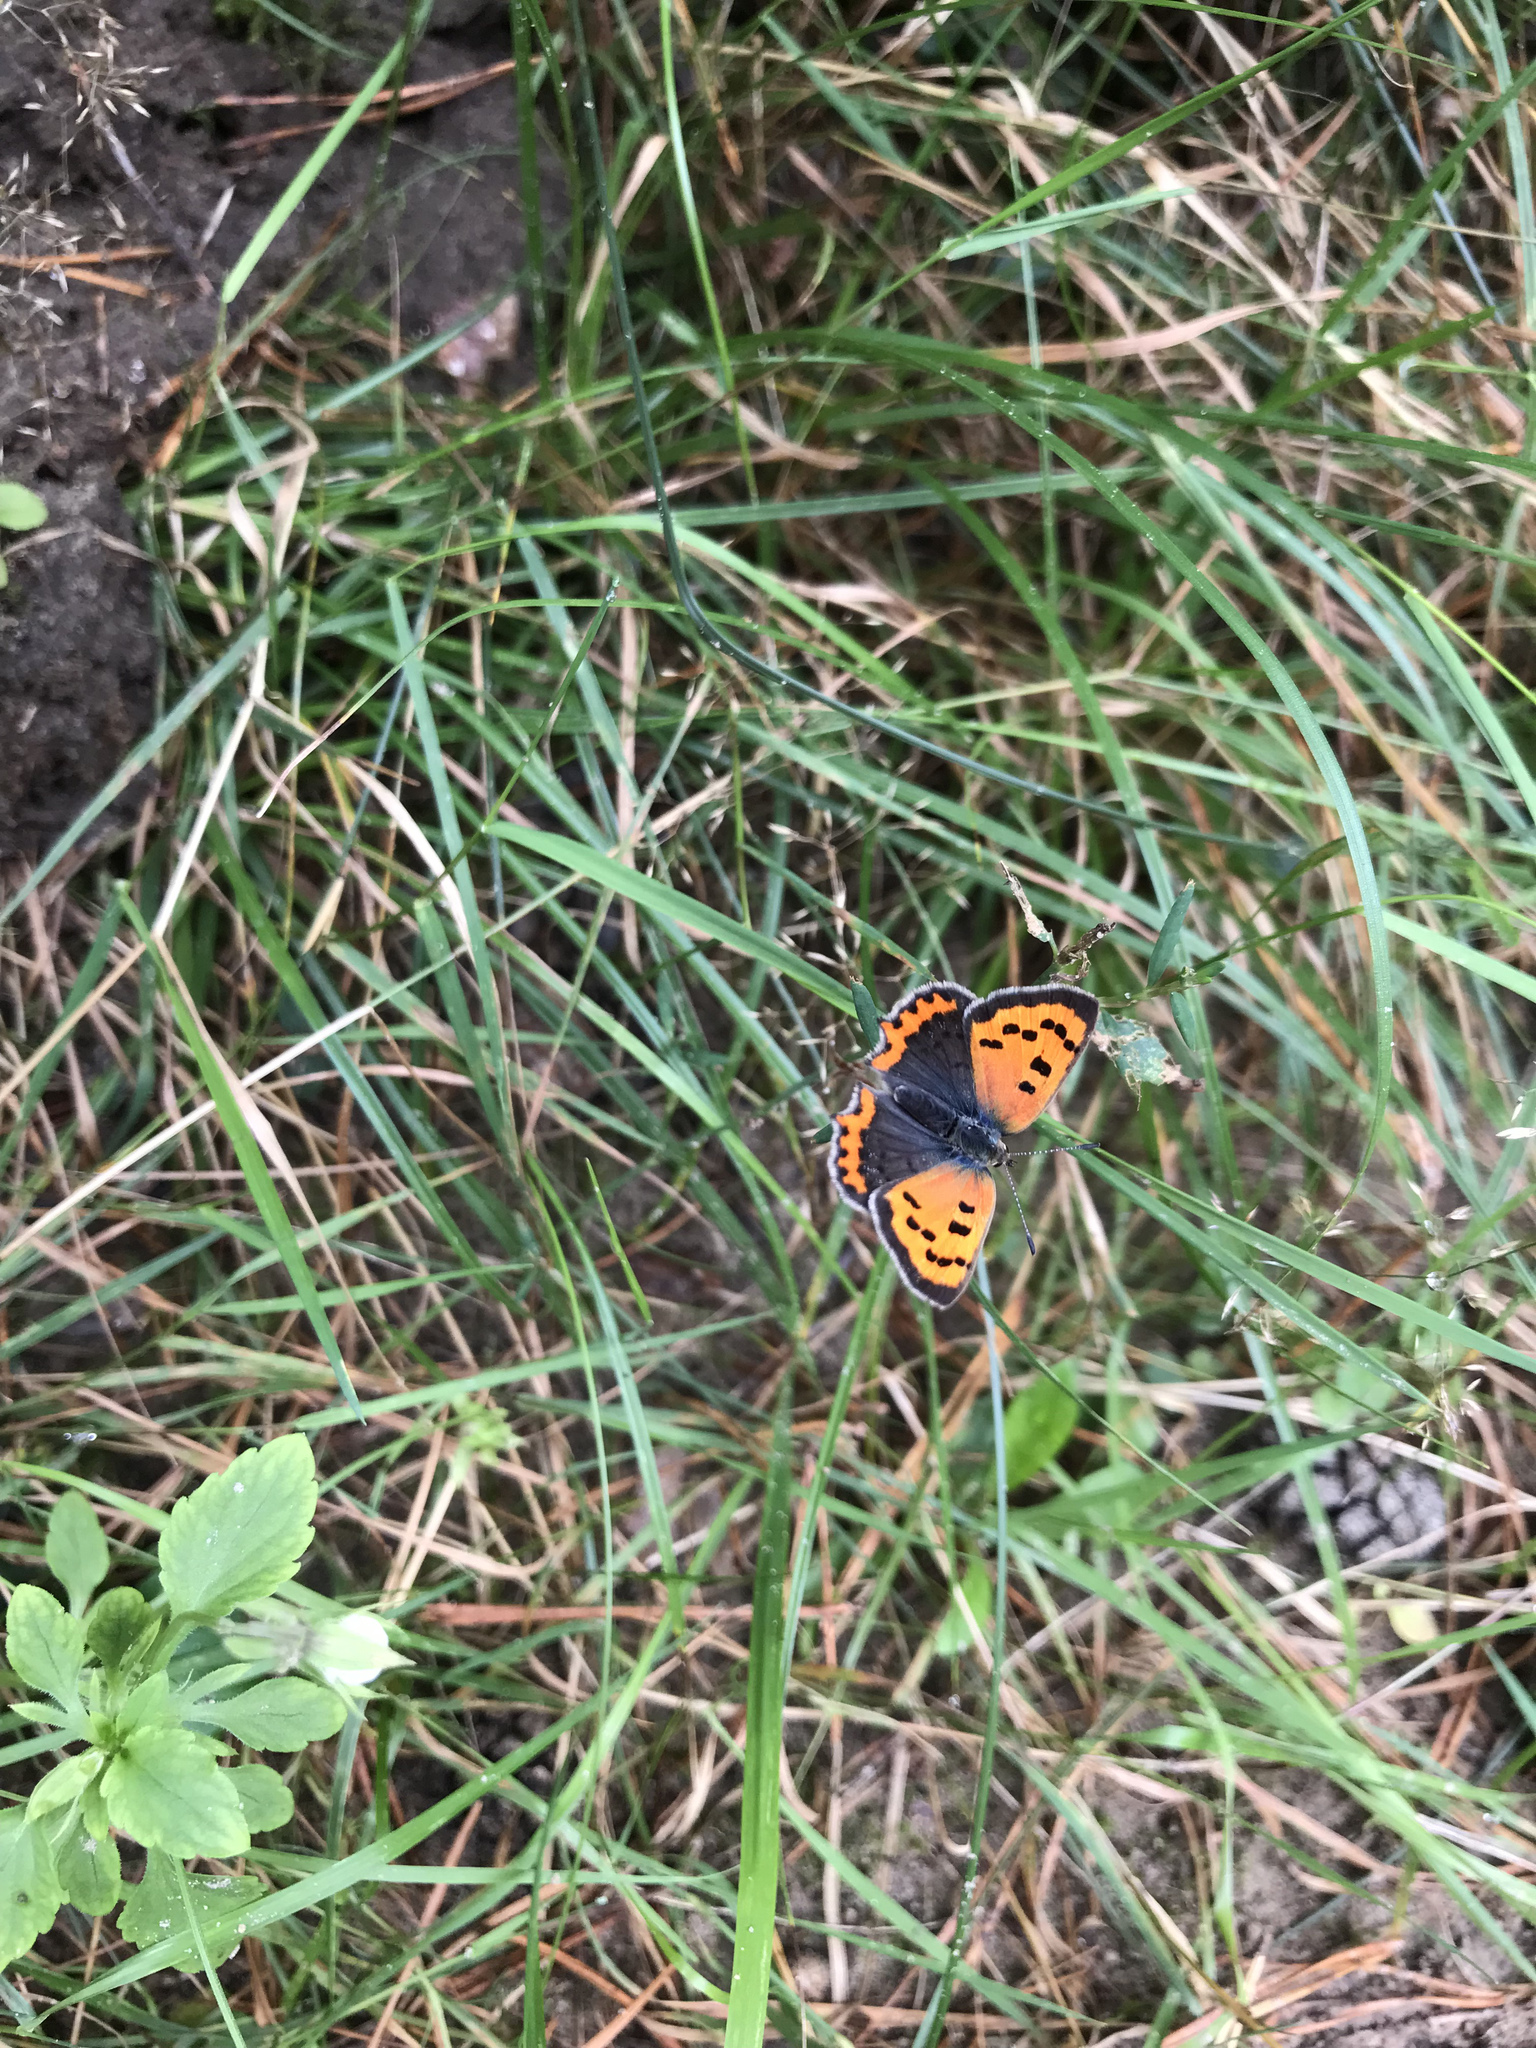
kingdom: Animalia
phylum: Arthropoda
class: Insecta
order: Lepidoptera
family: Lycaenidae
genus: Lycaena
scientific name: Lycaena phlaeas
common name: Small copper
